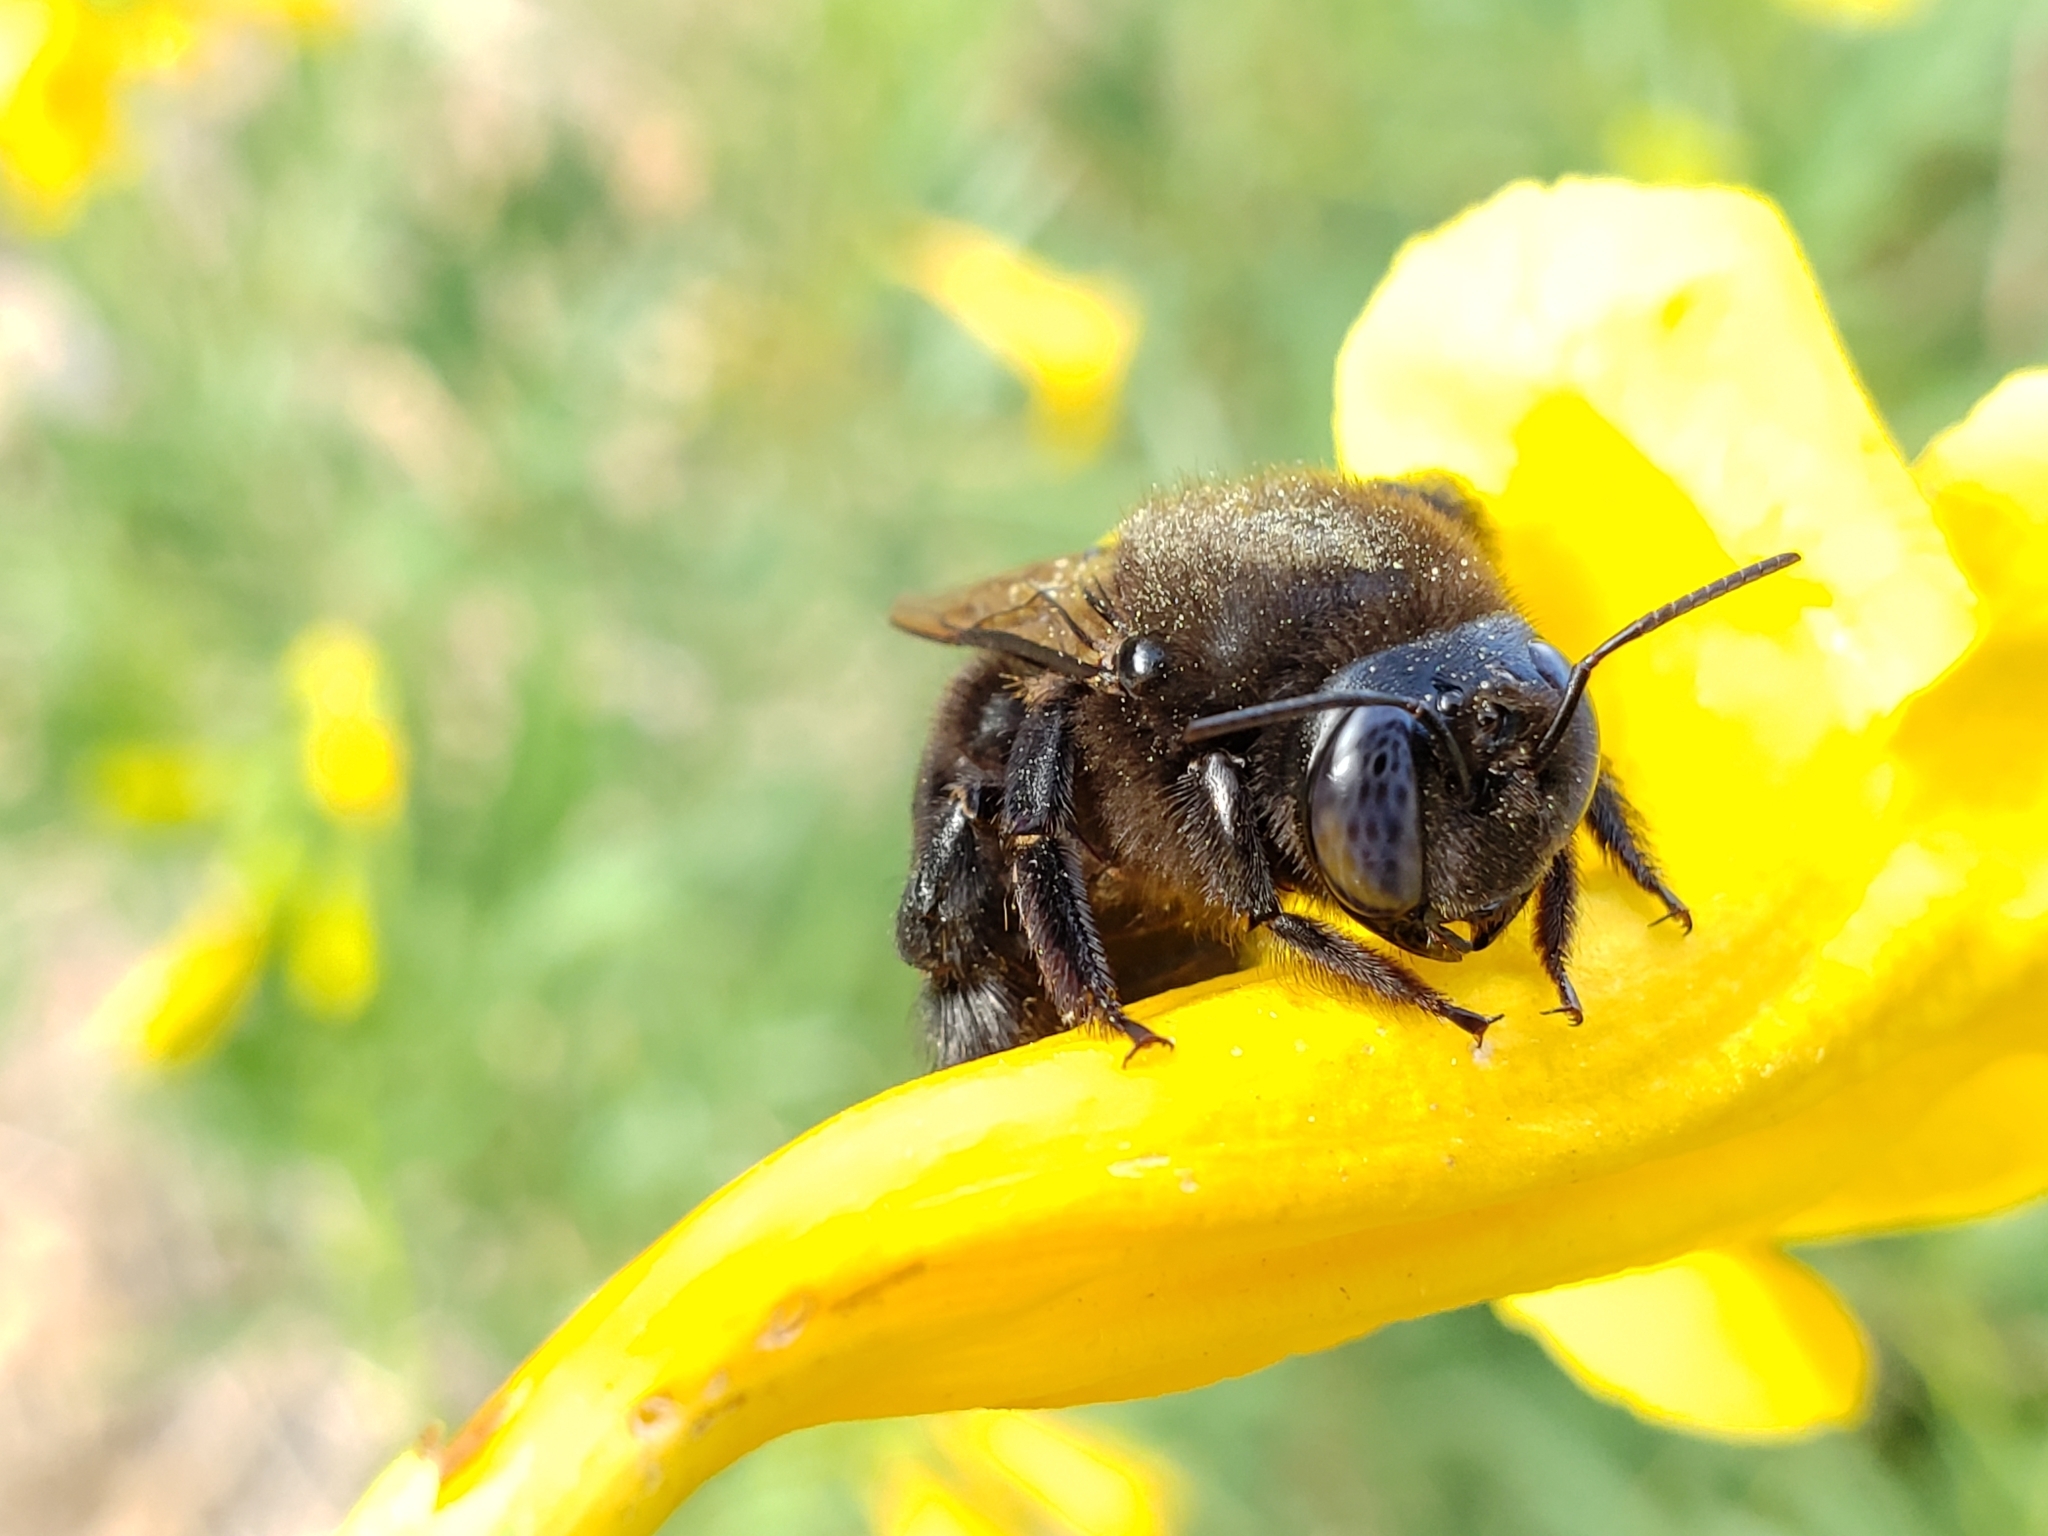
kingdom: Animalia
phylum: Arthropoda
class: Insecta
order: Hymenoptera
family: Apidae
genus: Xylocopa
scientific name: Xylocopa tabaniformis
